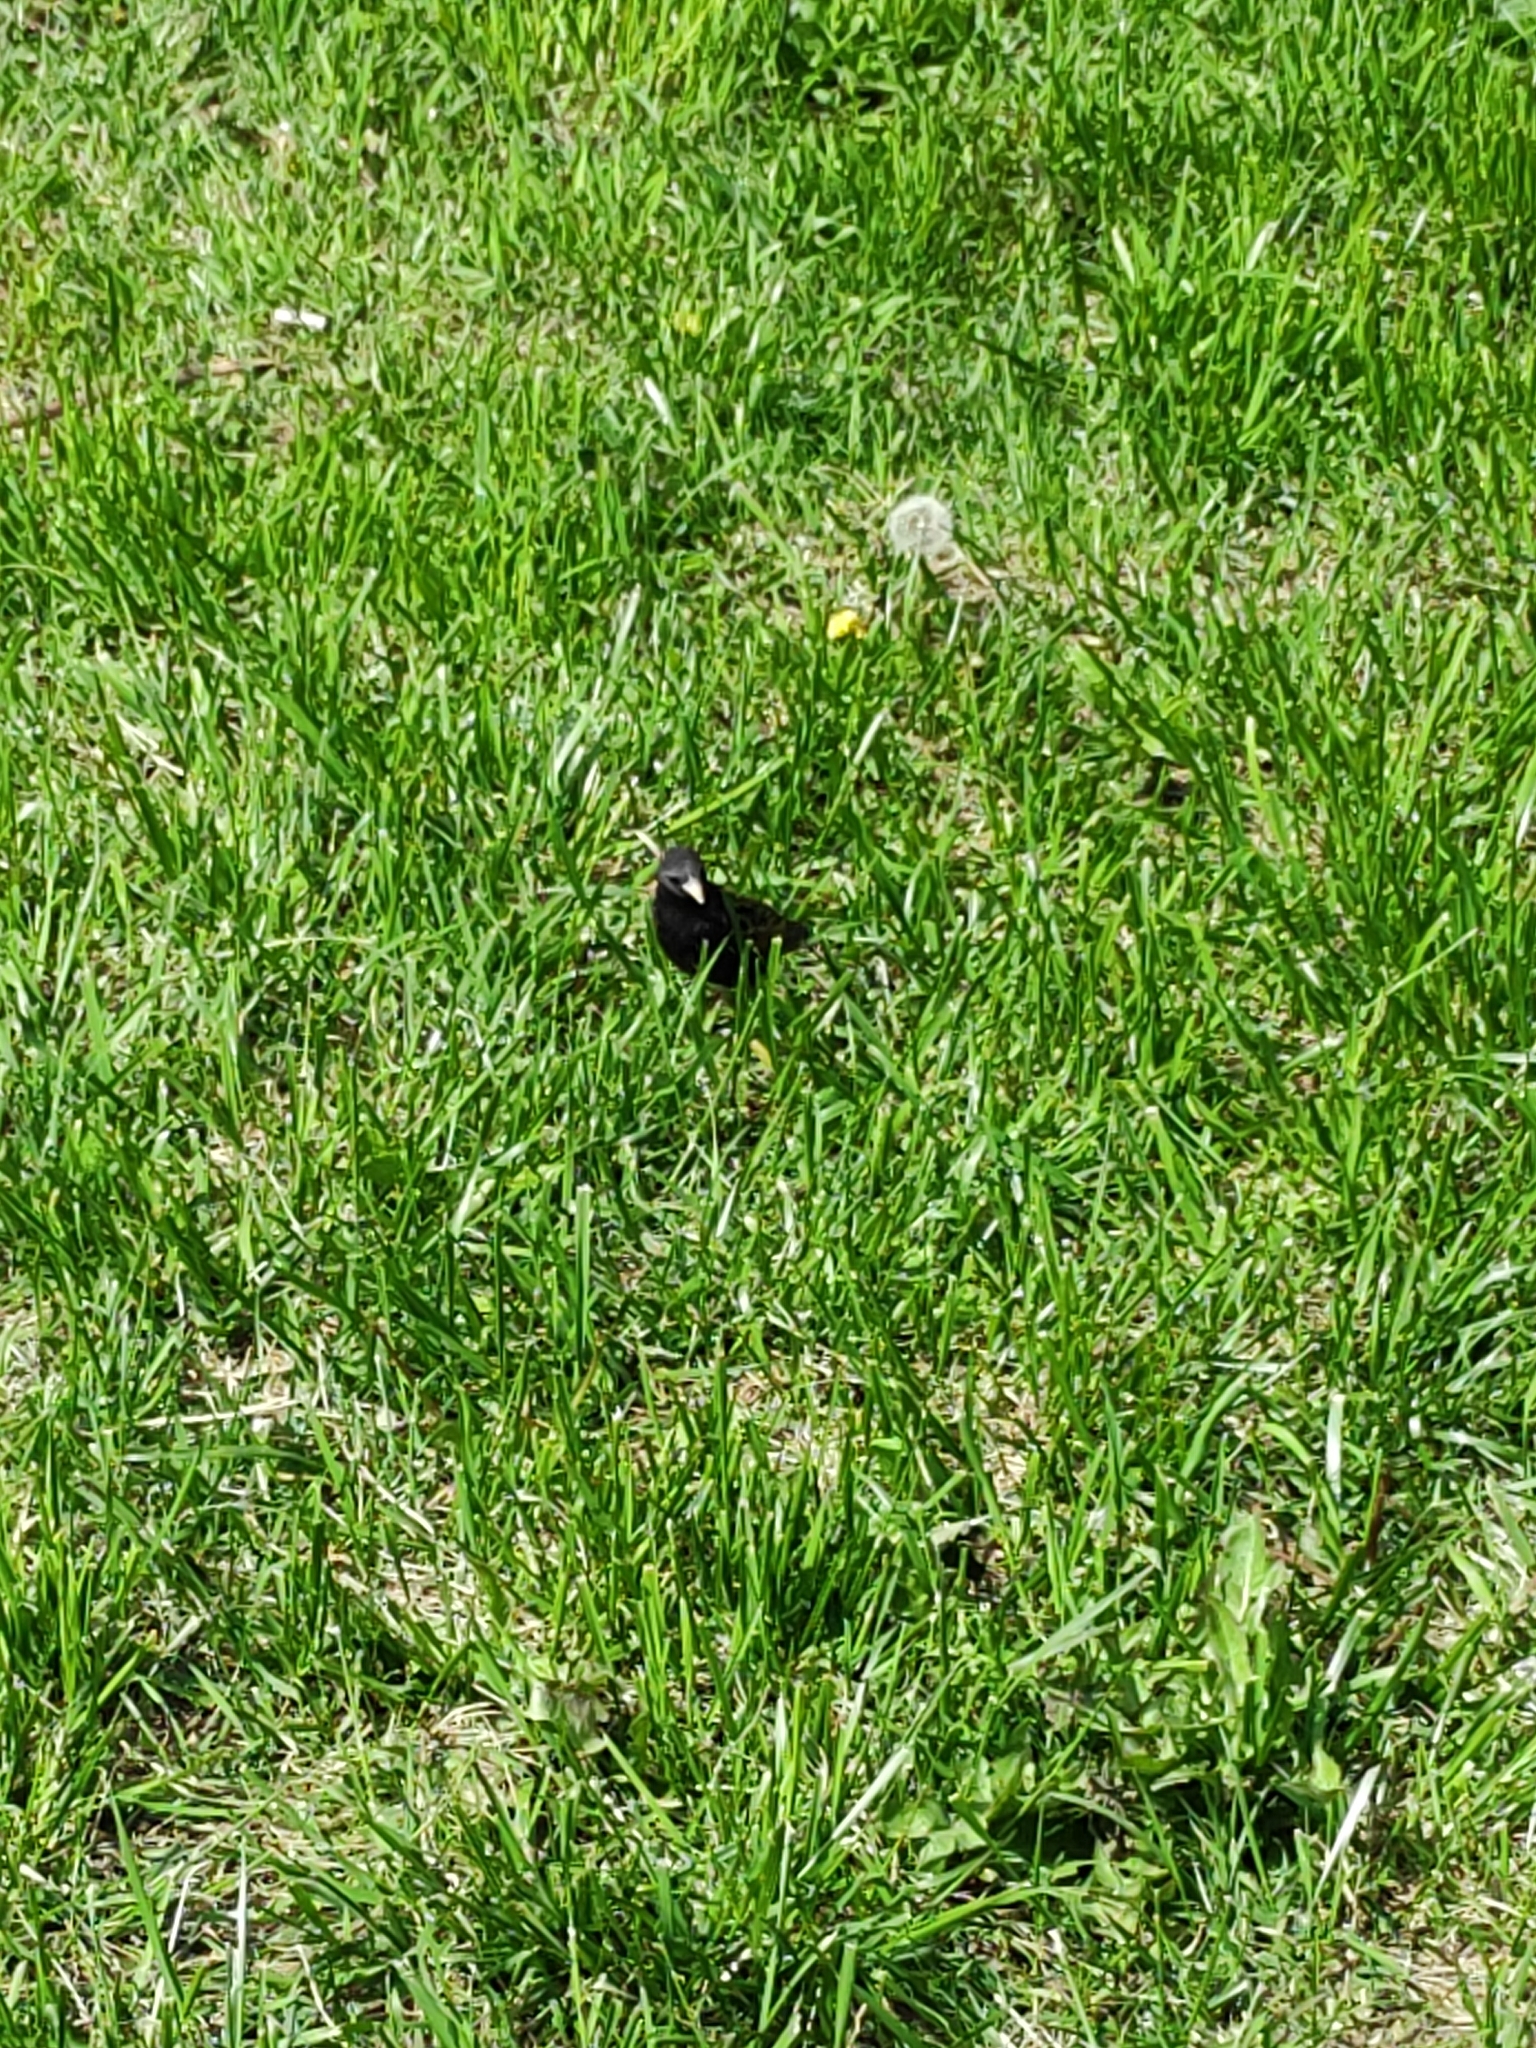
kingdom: Animalia
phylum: Chordata
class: Aves
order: Passeriformes
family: Sturnidae
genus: Sturnus
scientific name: Sturnus vulgaris
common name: Common starling
